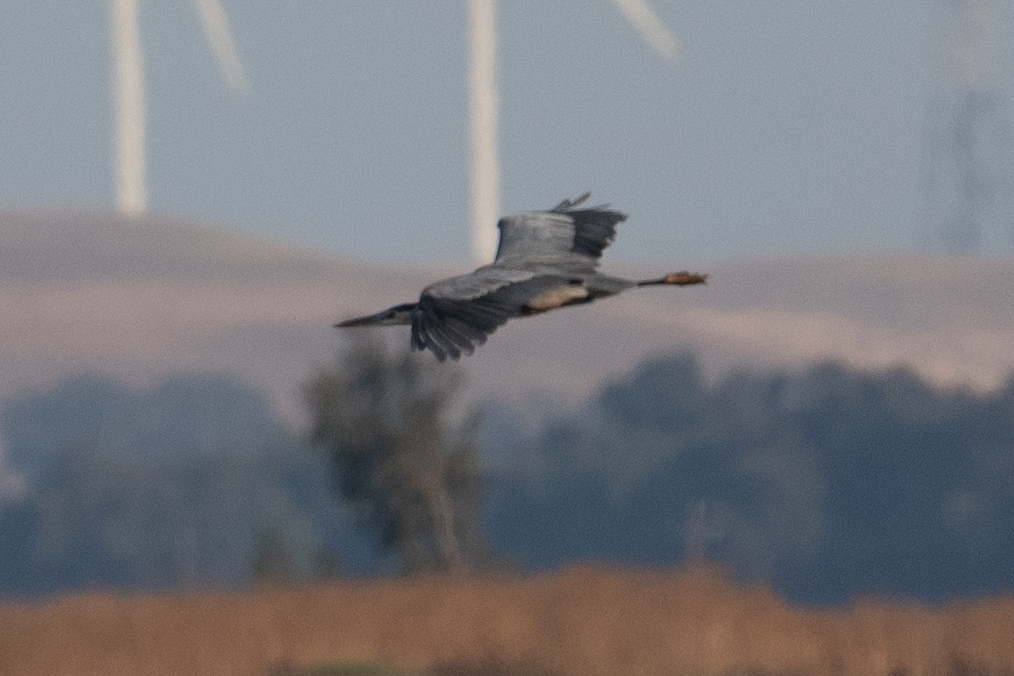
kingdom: Animalia
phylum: Chordata
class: Aves
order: Pelecaniformes
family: Ardeidae
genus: Ardea
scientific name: Ardea herodias
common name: Great blue heron
